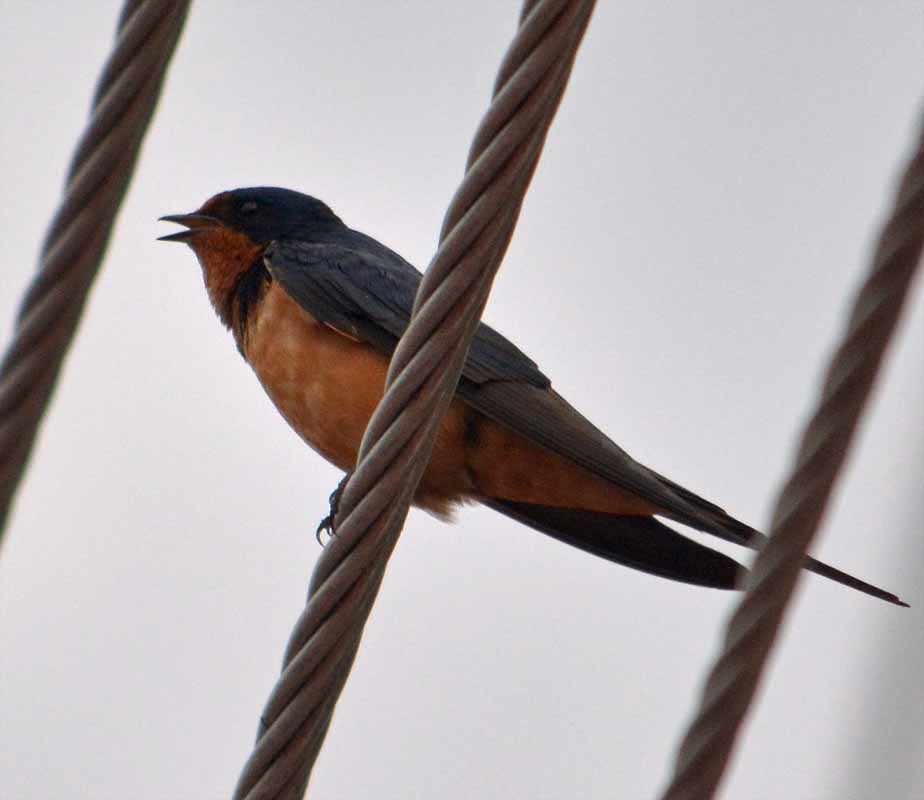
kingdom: Animalia
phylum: Chordata
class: Aves
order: Passeriformes
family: Hirundinidae
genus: Hirundo
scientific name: Hirundo rustica
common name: Barn swallow
